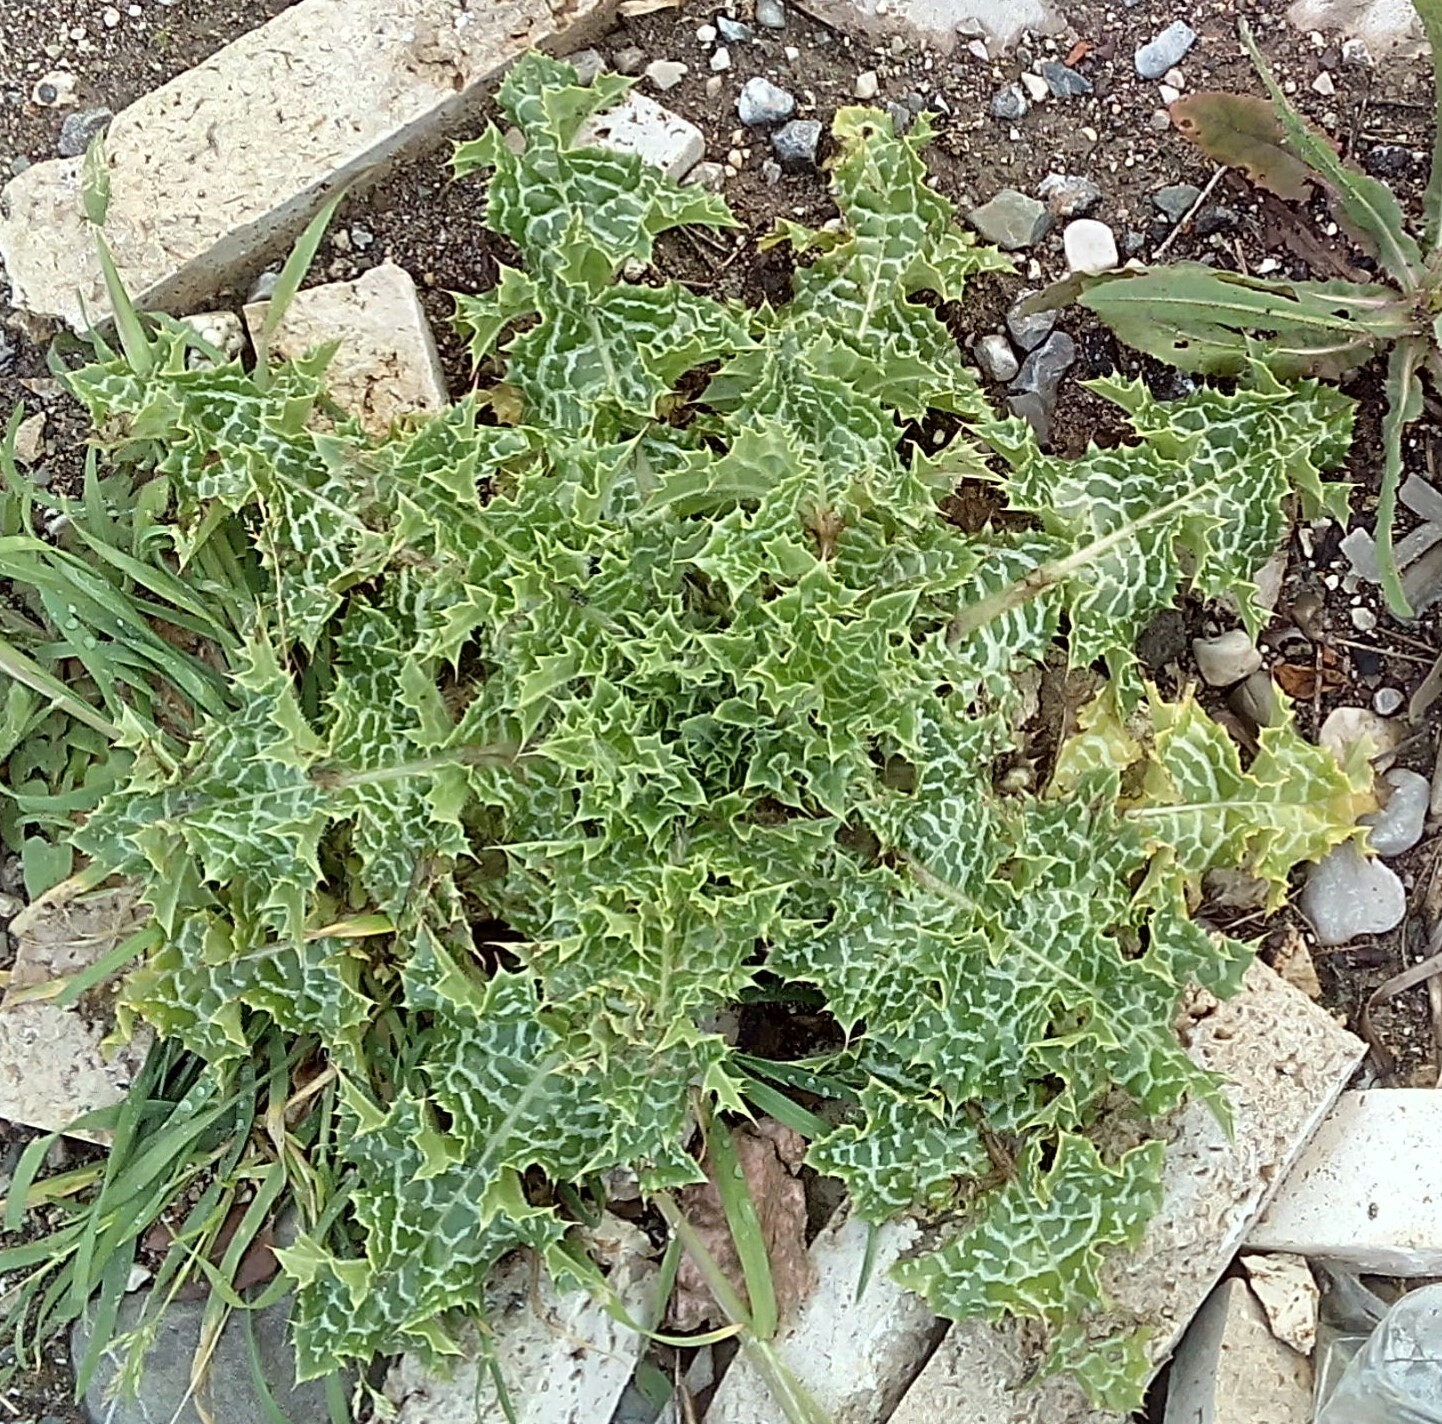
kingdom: Plantae
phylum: Tracheophyta
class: Magnoliopsida
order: Asterales
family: Asteraceae
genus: Silybum
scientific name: Silybum marianum
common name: Milk thistle
